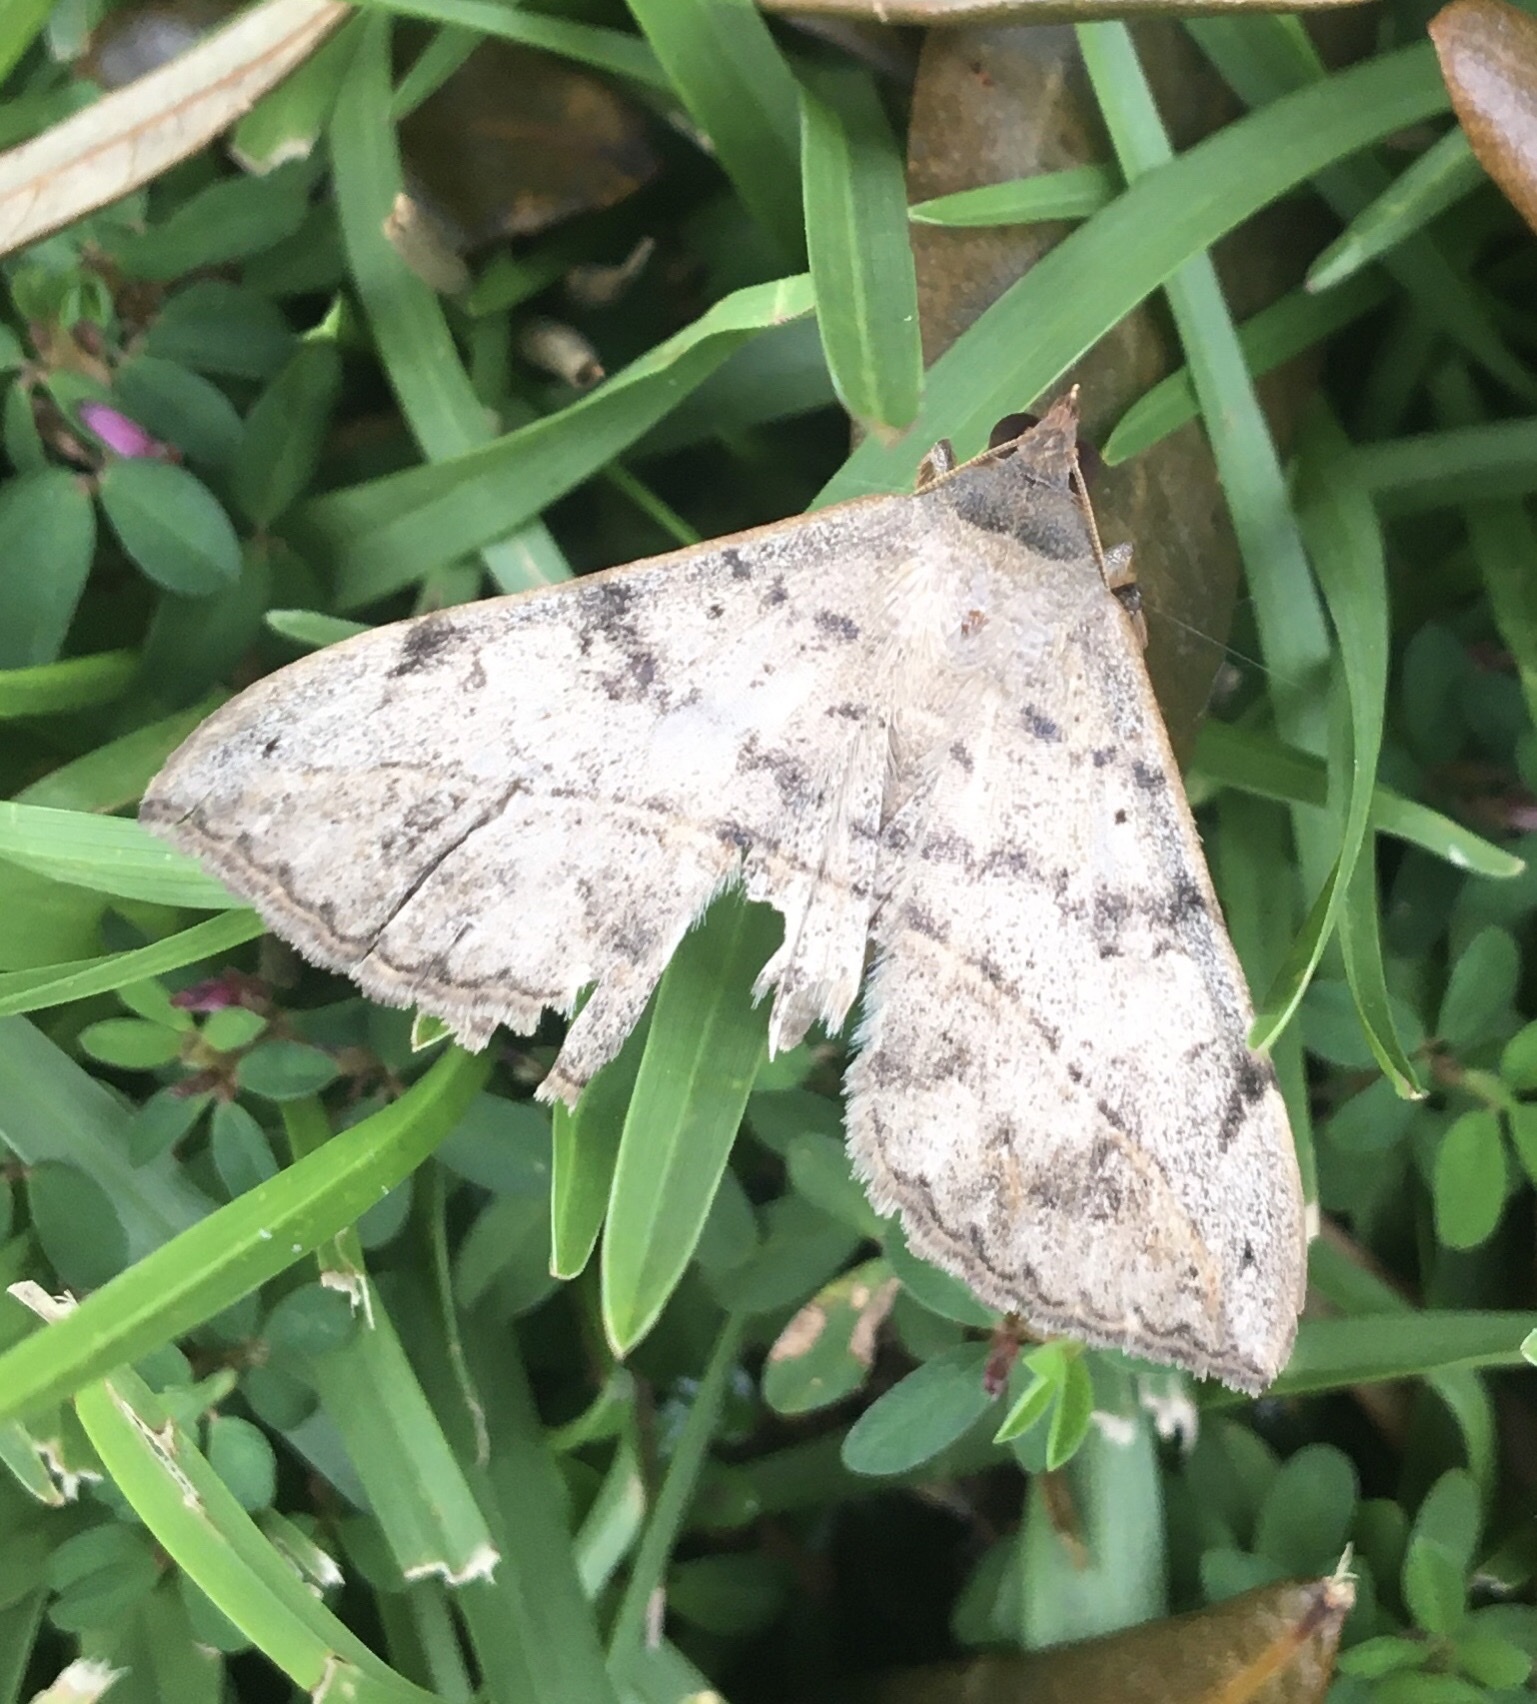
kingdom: Animalia
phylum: Arthropoda
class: Insecta
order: Lepidoptera
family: Erebidae
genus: Anticarsia
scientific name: Anticarsia gemmatalis
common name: Cutworm moth
